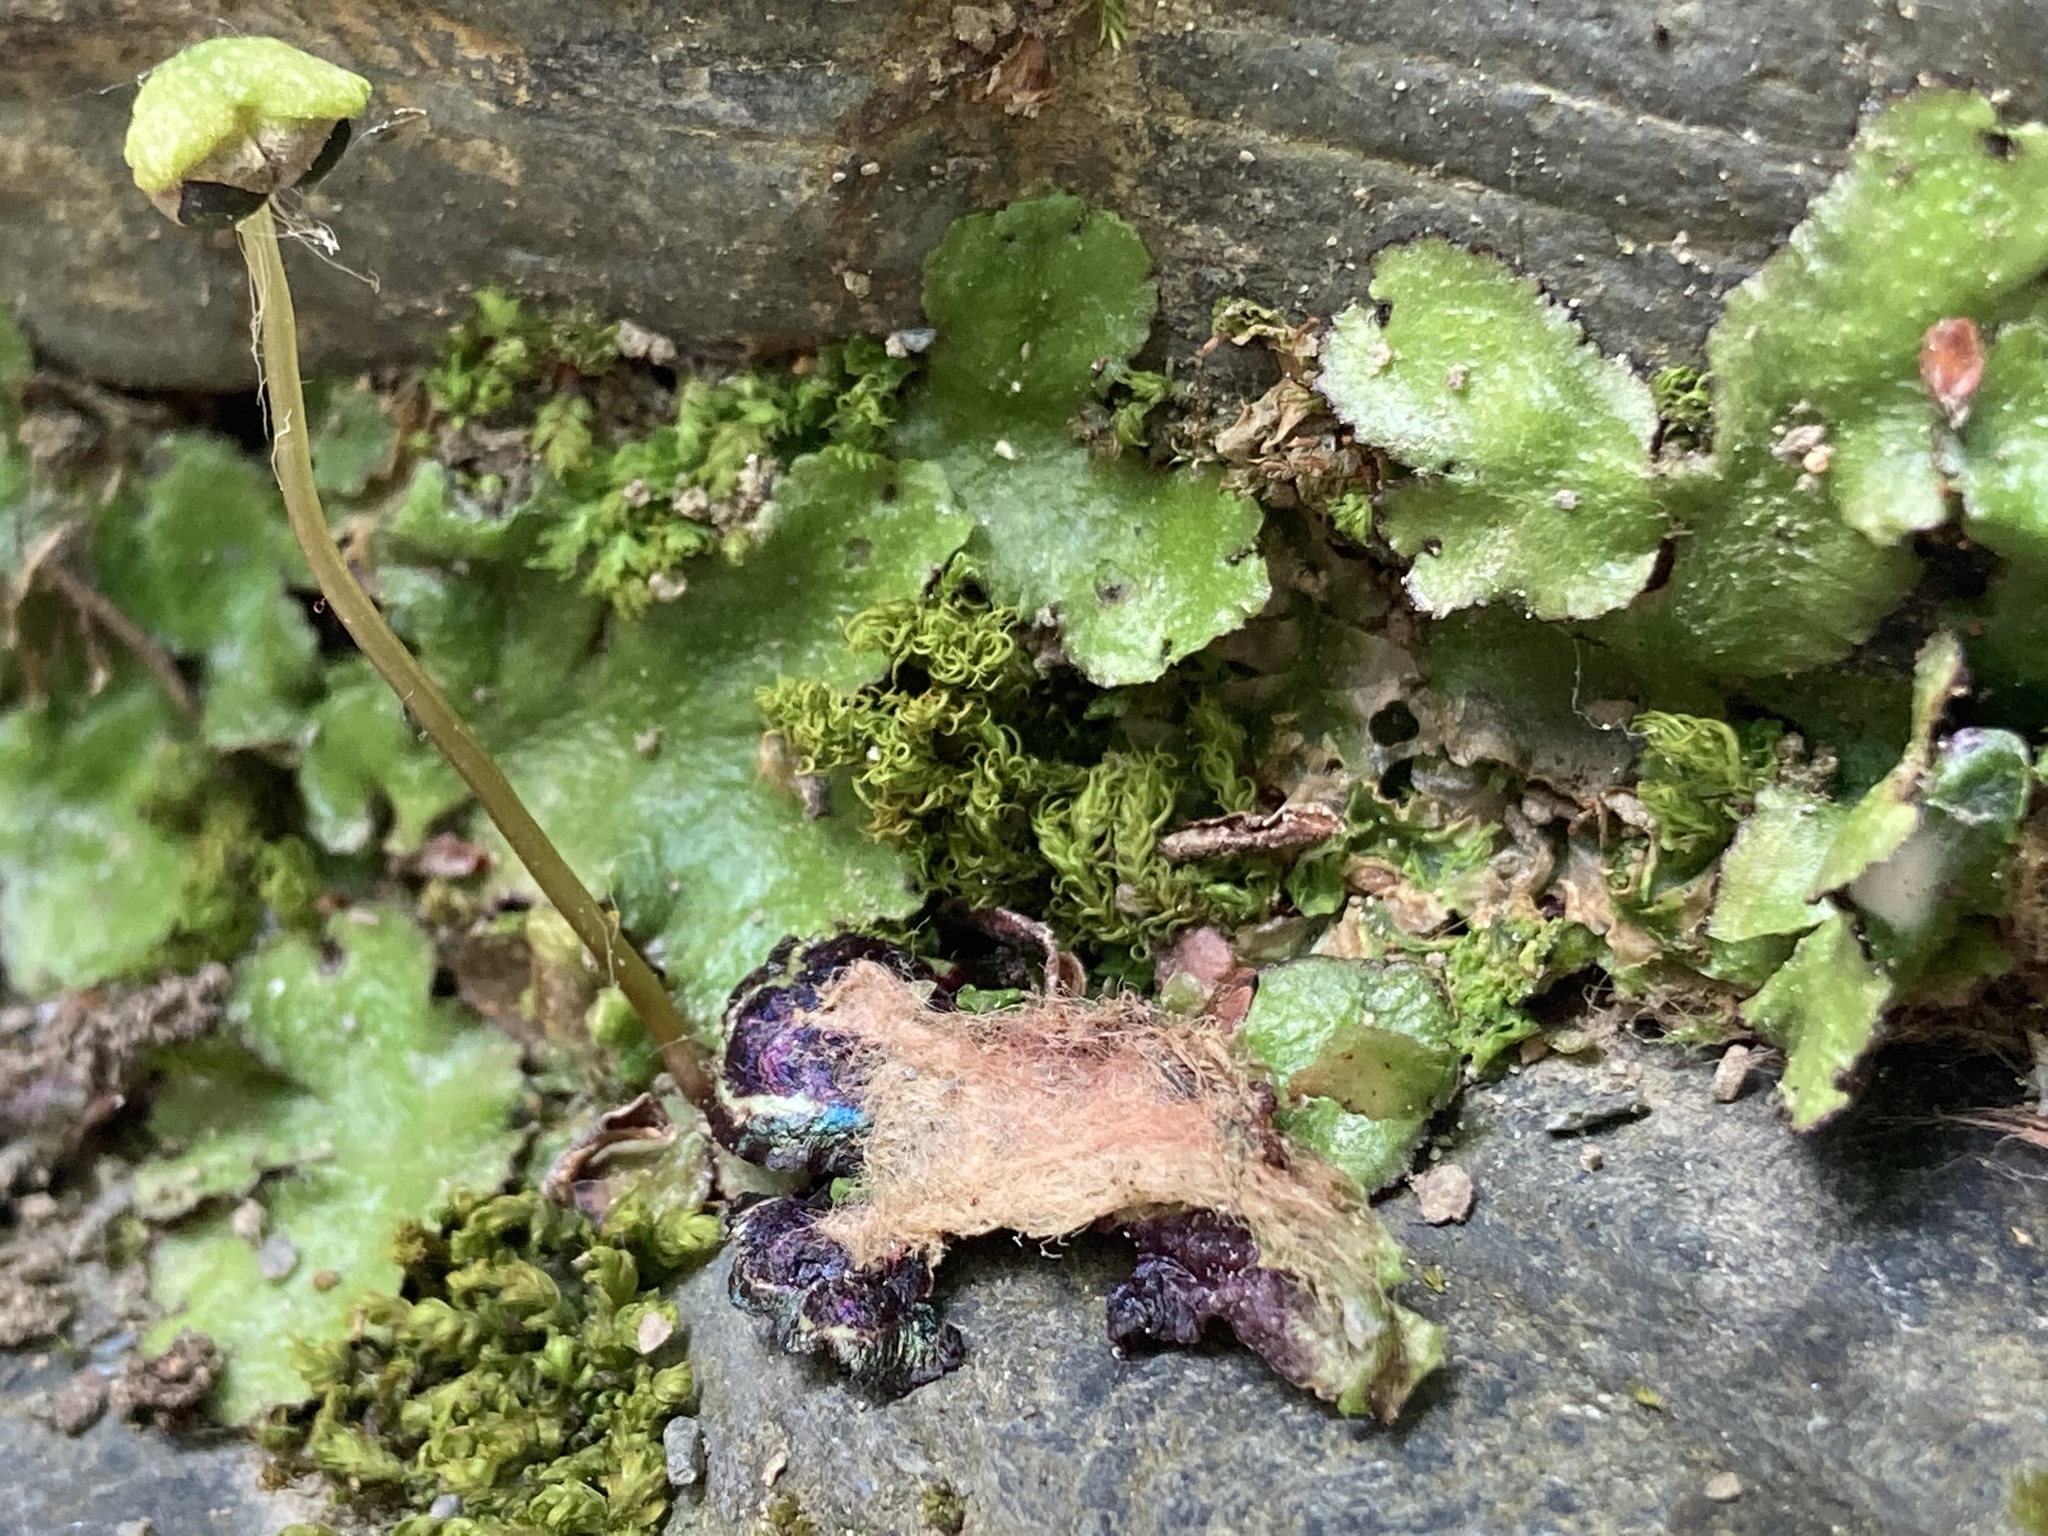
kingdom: Plantae
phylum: Marchantiophyta
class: Marchantiopsida
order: Marchantiales
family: Aytoniaceae
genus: Reboulia
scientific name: Reboulia hemisphaerica
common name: Purple-margined liverwort
